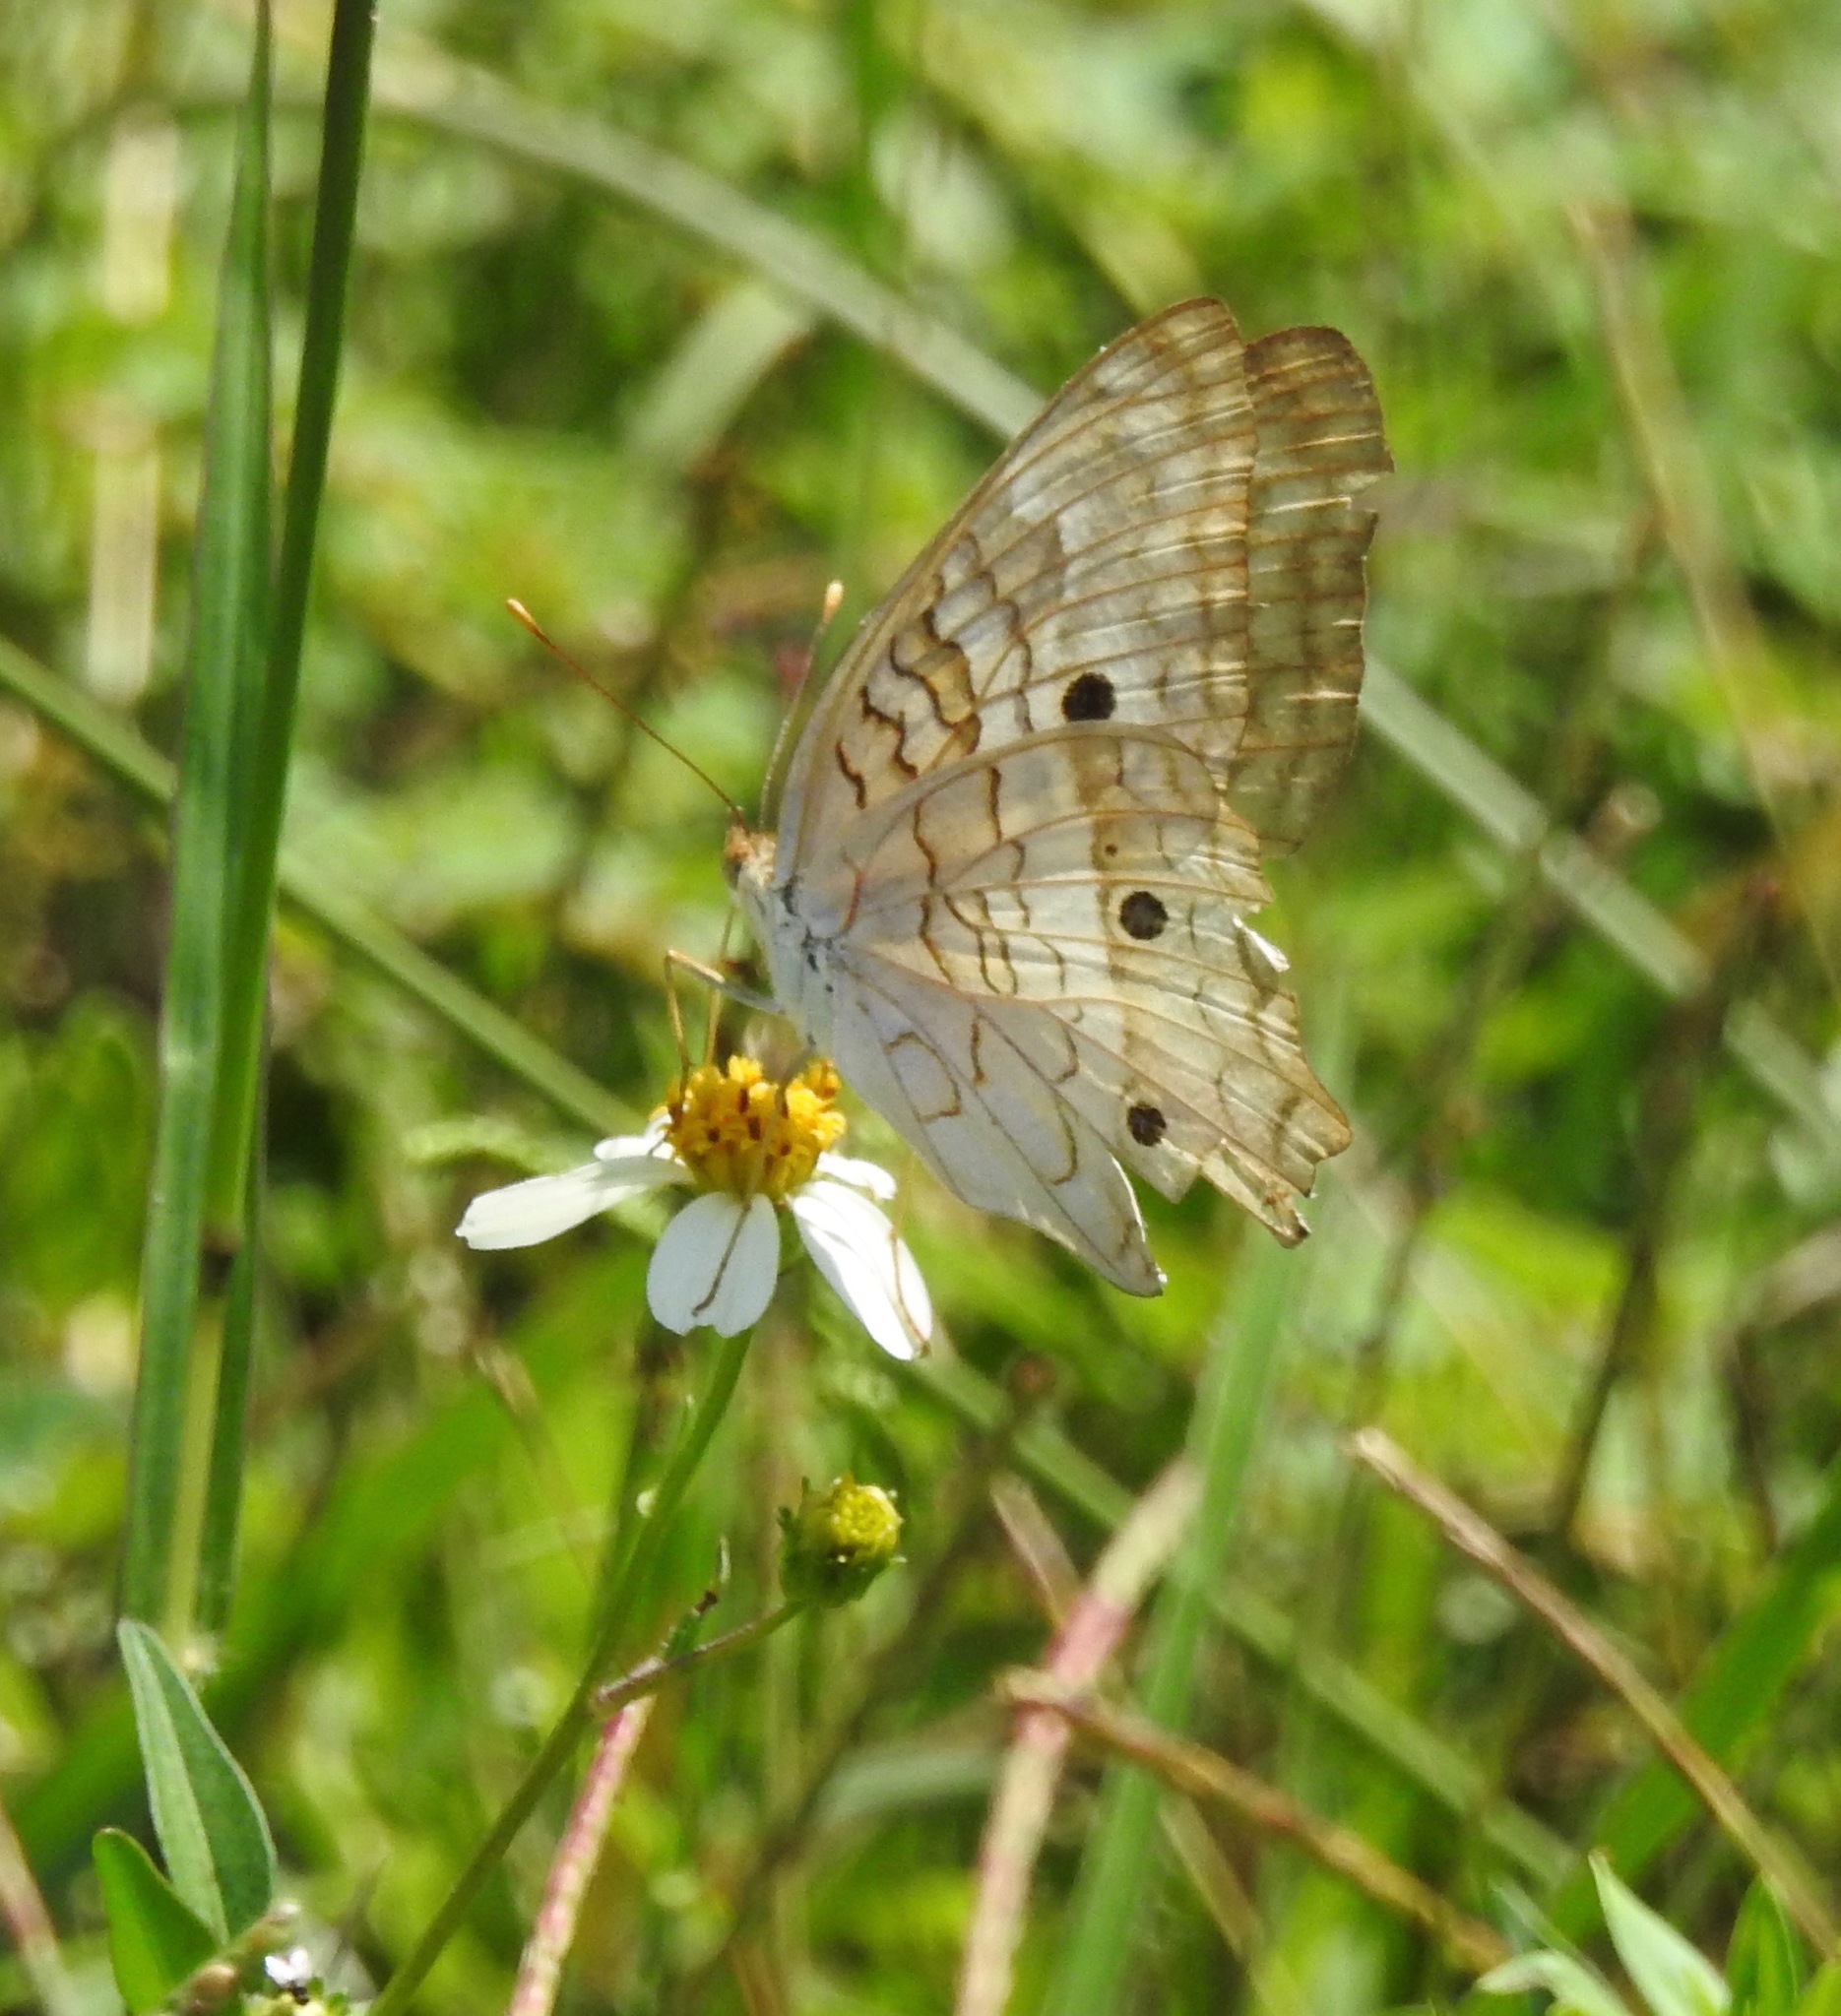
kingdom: Animalia
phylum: Arthropoda
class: Insecta
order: Lepidoptera
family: Nymphalidae
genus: Anartia
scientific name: Anartia jatrophae
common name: White peacock
